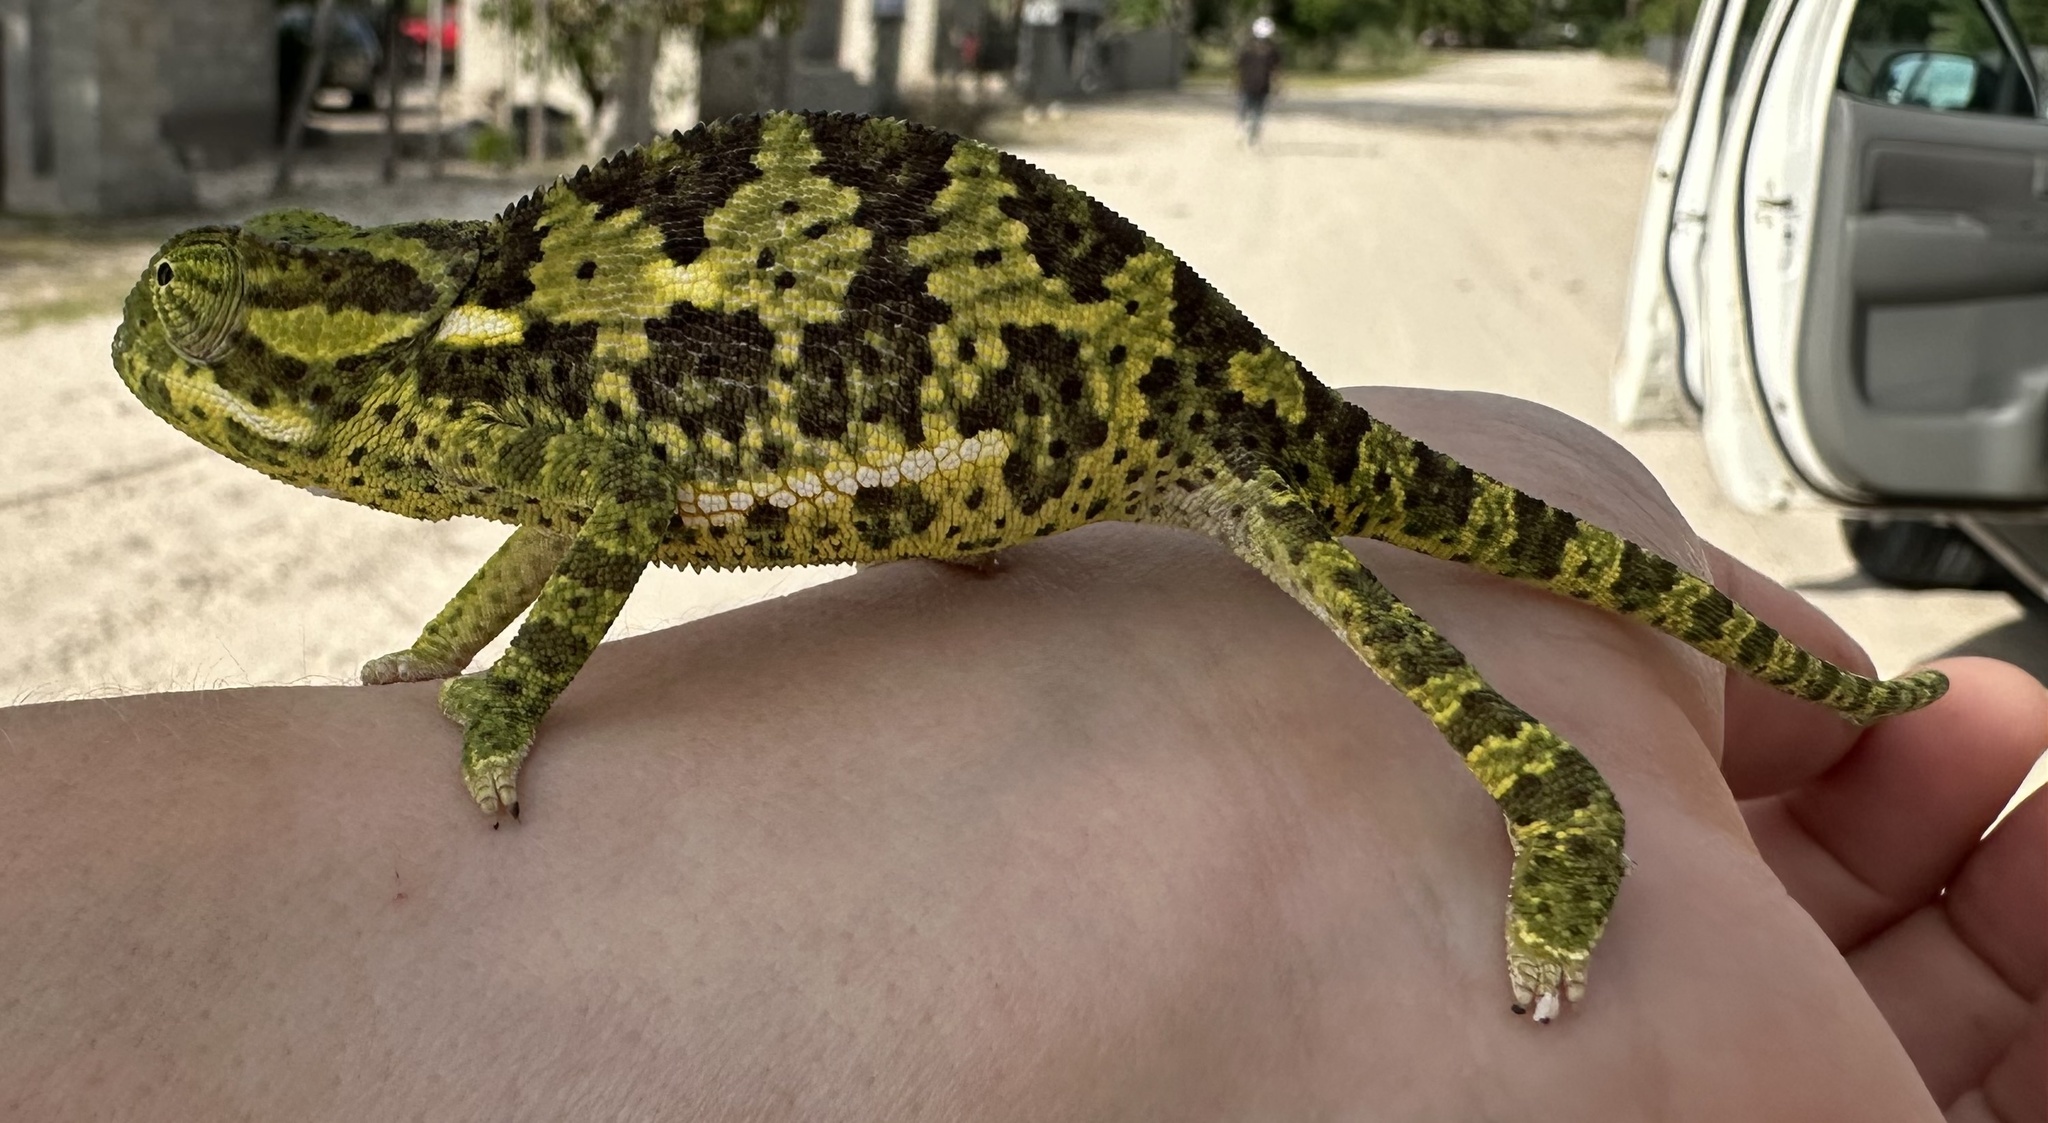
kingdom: Animalia
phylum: Chordata
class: Squamata
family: Chamaeleonidae
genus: Chamaeleo
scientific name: Chamaeleo dilepis
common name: Flapneck chameleon
